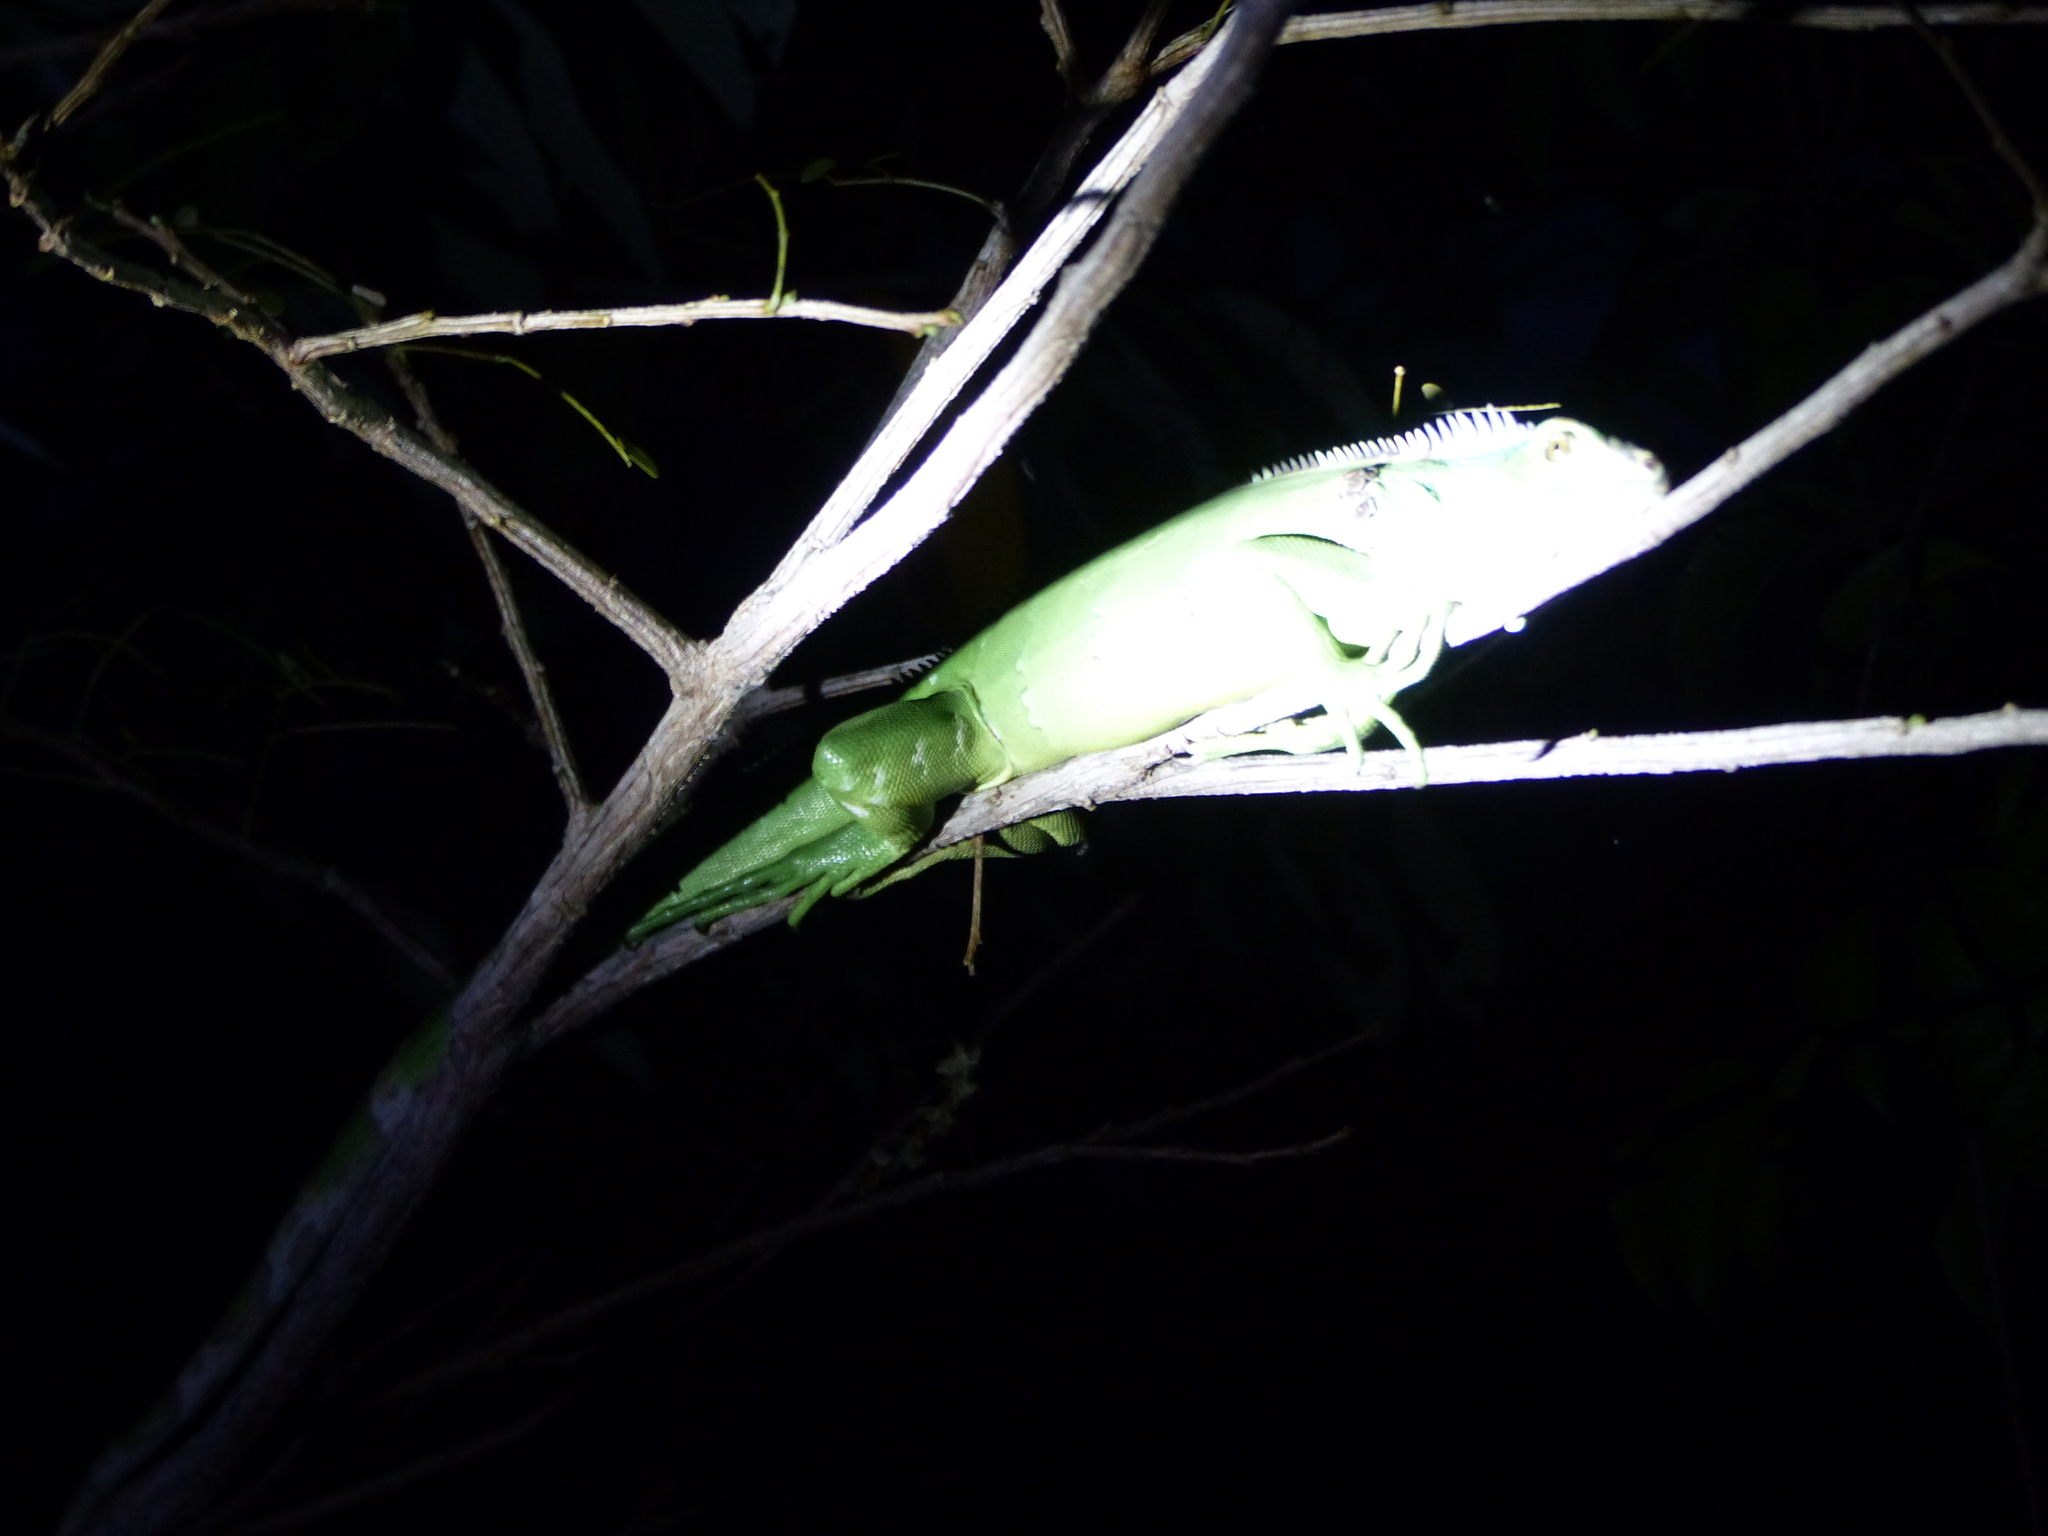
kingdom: Animalia
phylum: Chordata
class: Squamata
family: Iguanidae
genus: Iguana
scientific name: Iguana iguana
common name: Green iguana
